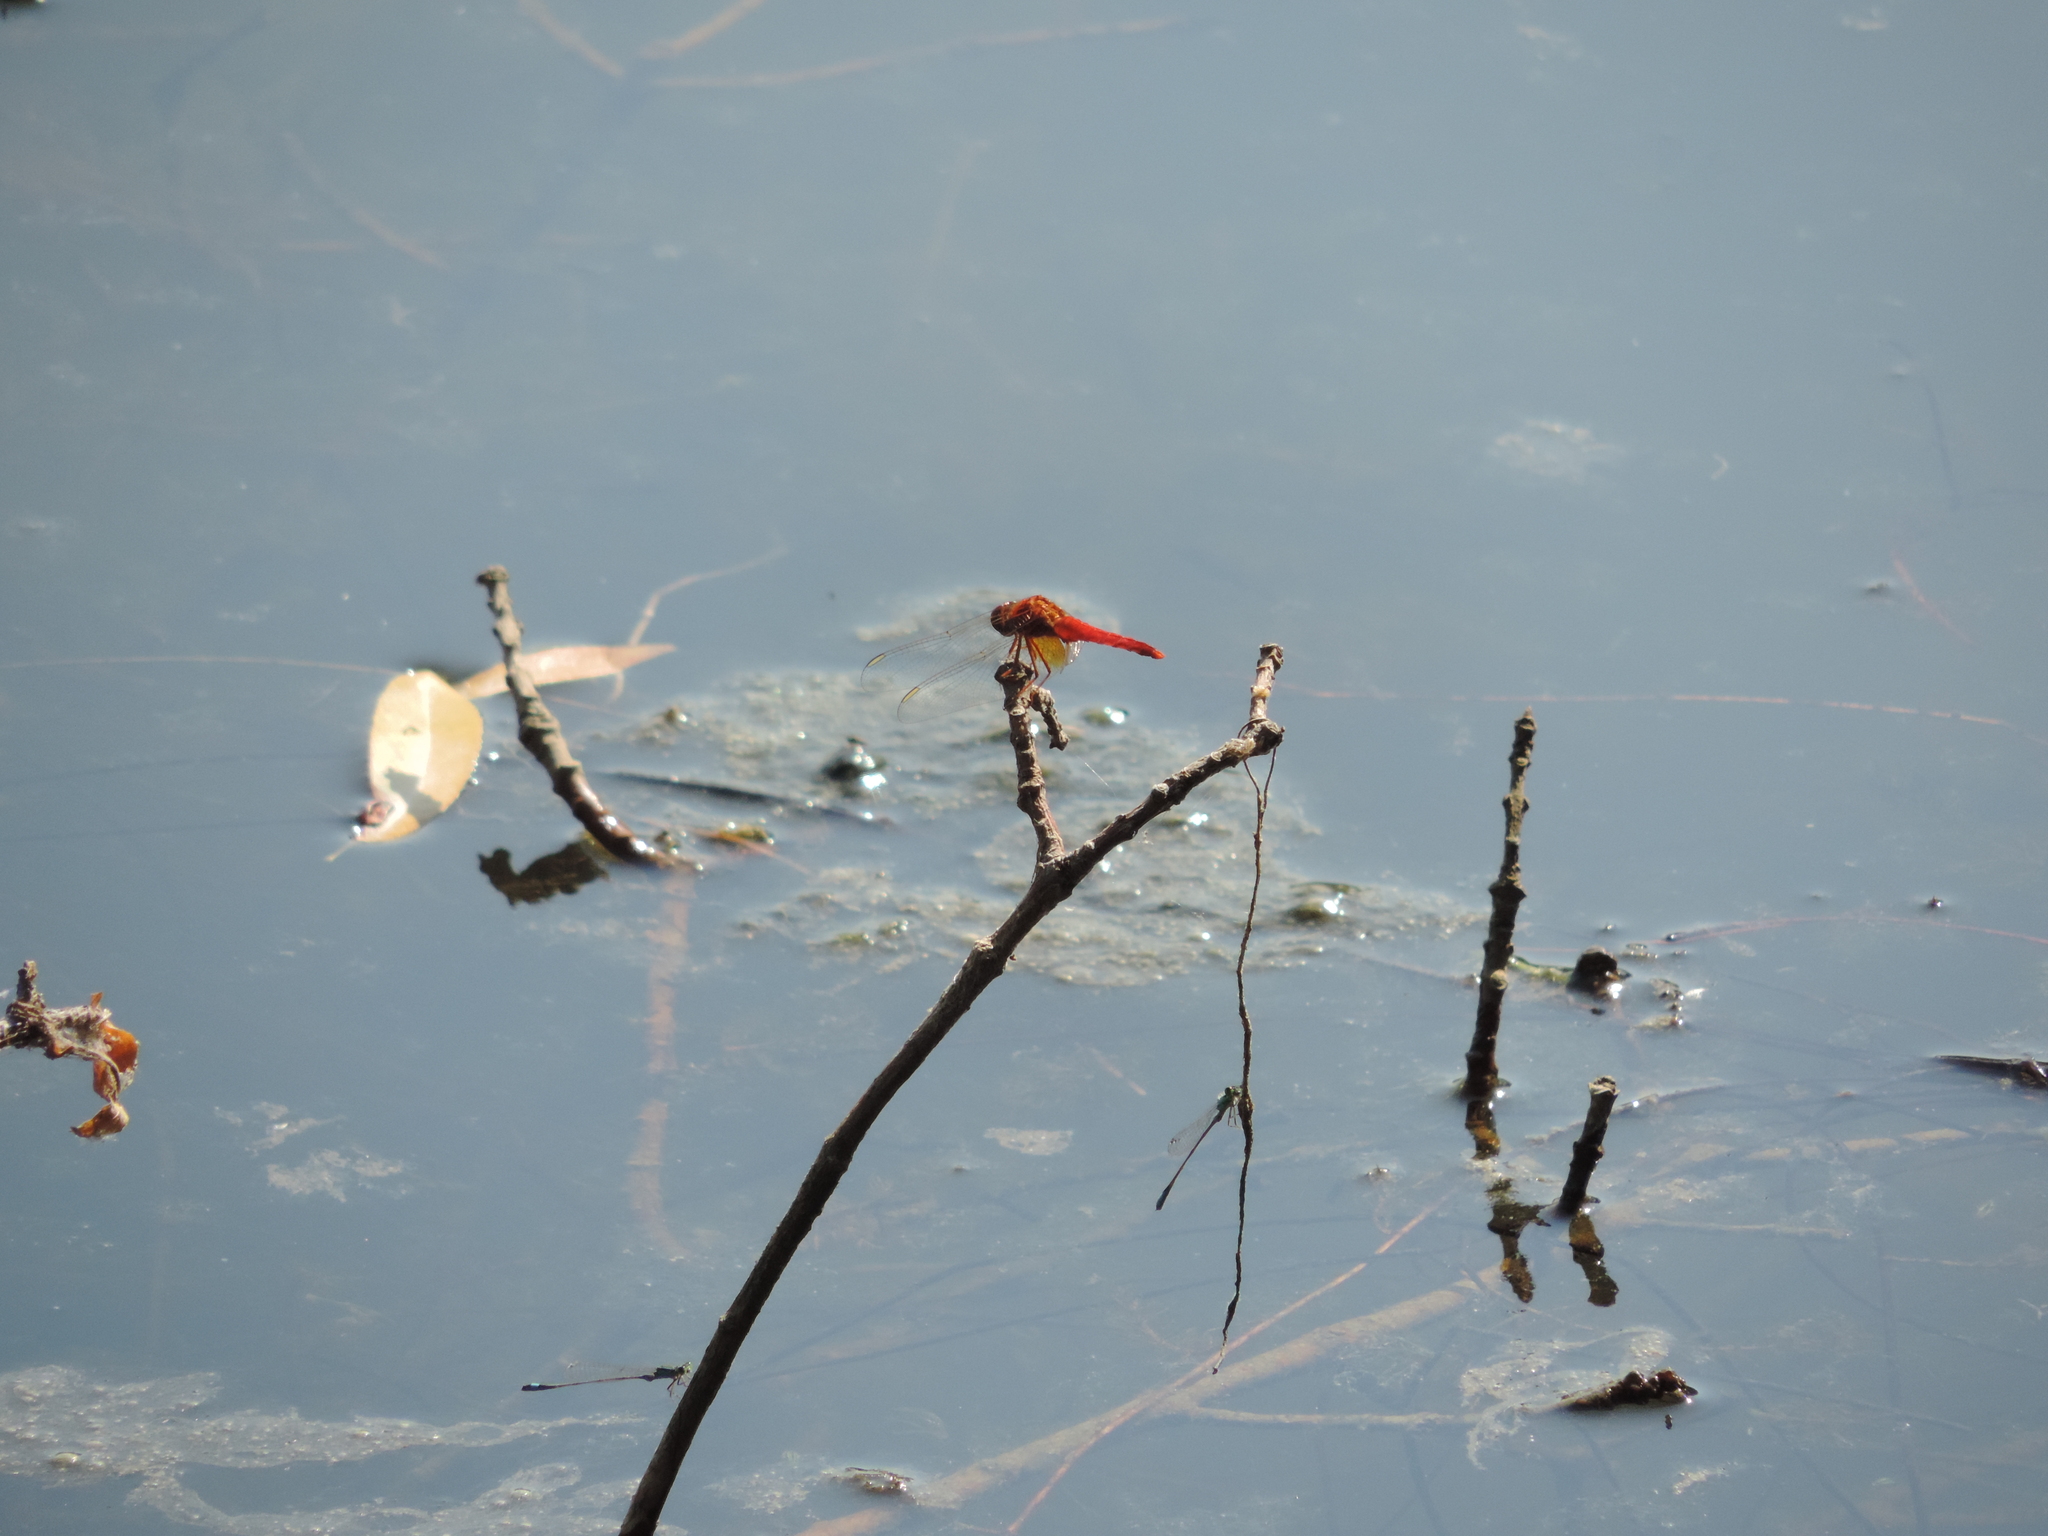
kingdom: Animalia
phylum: Arthropoda
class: Insecta
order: Odonata
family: Libellulidae
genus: Crocothemis
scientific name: Crocothemis erythraea
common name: Scarlet dragonfly
